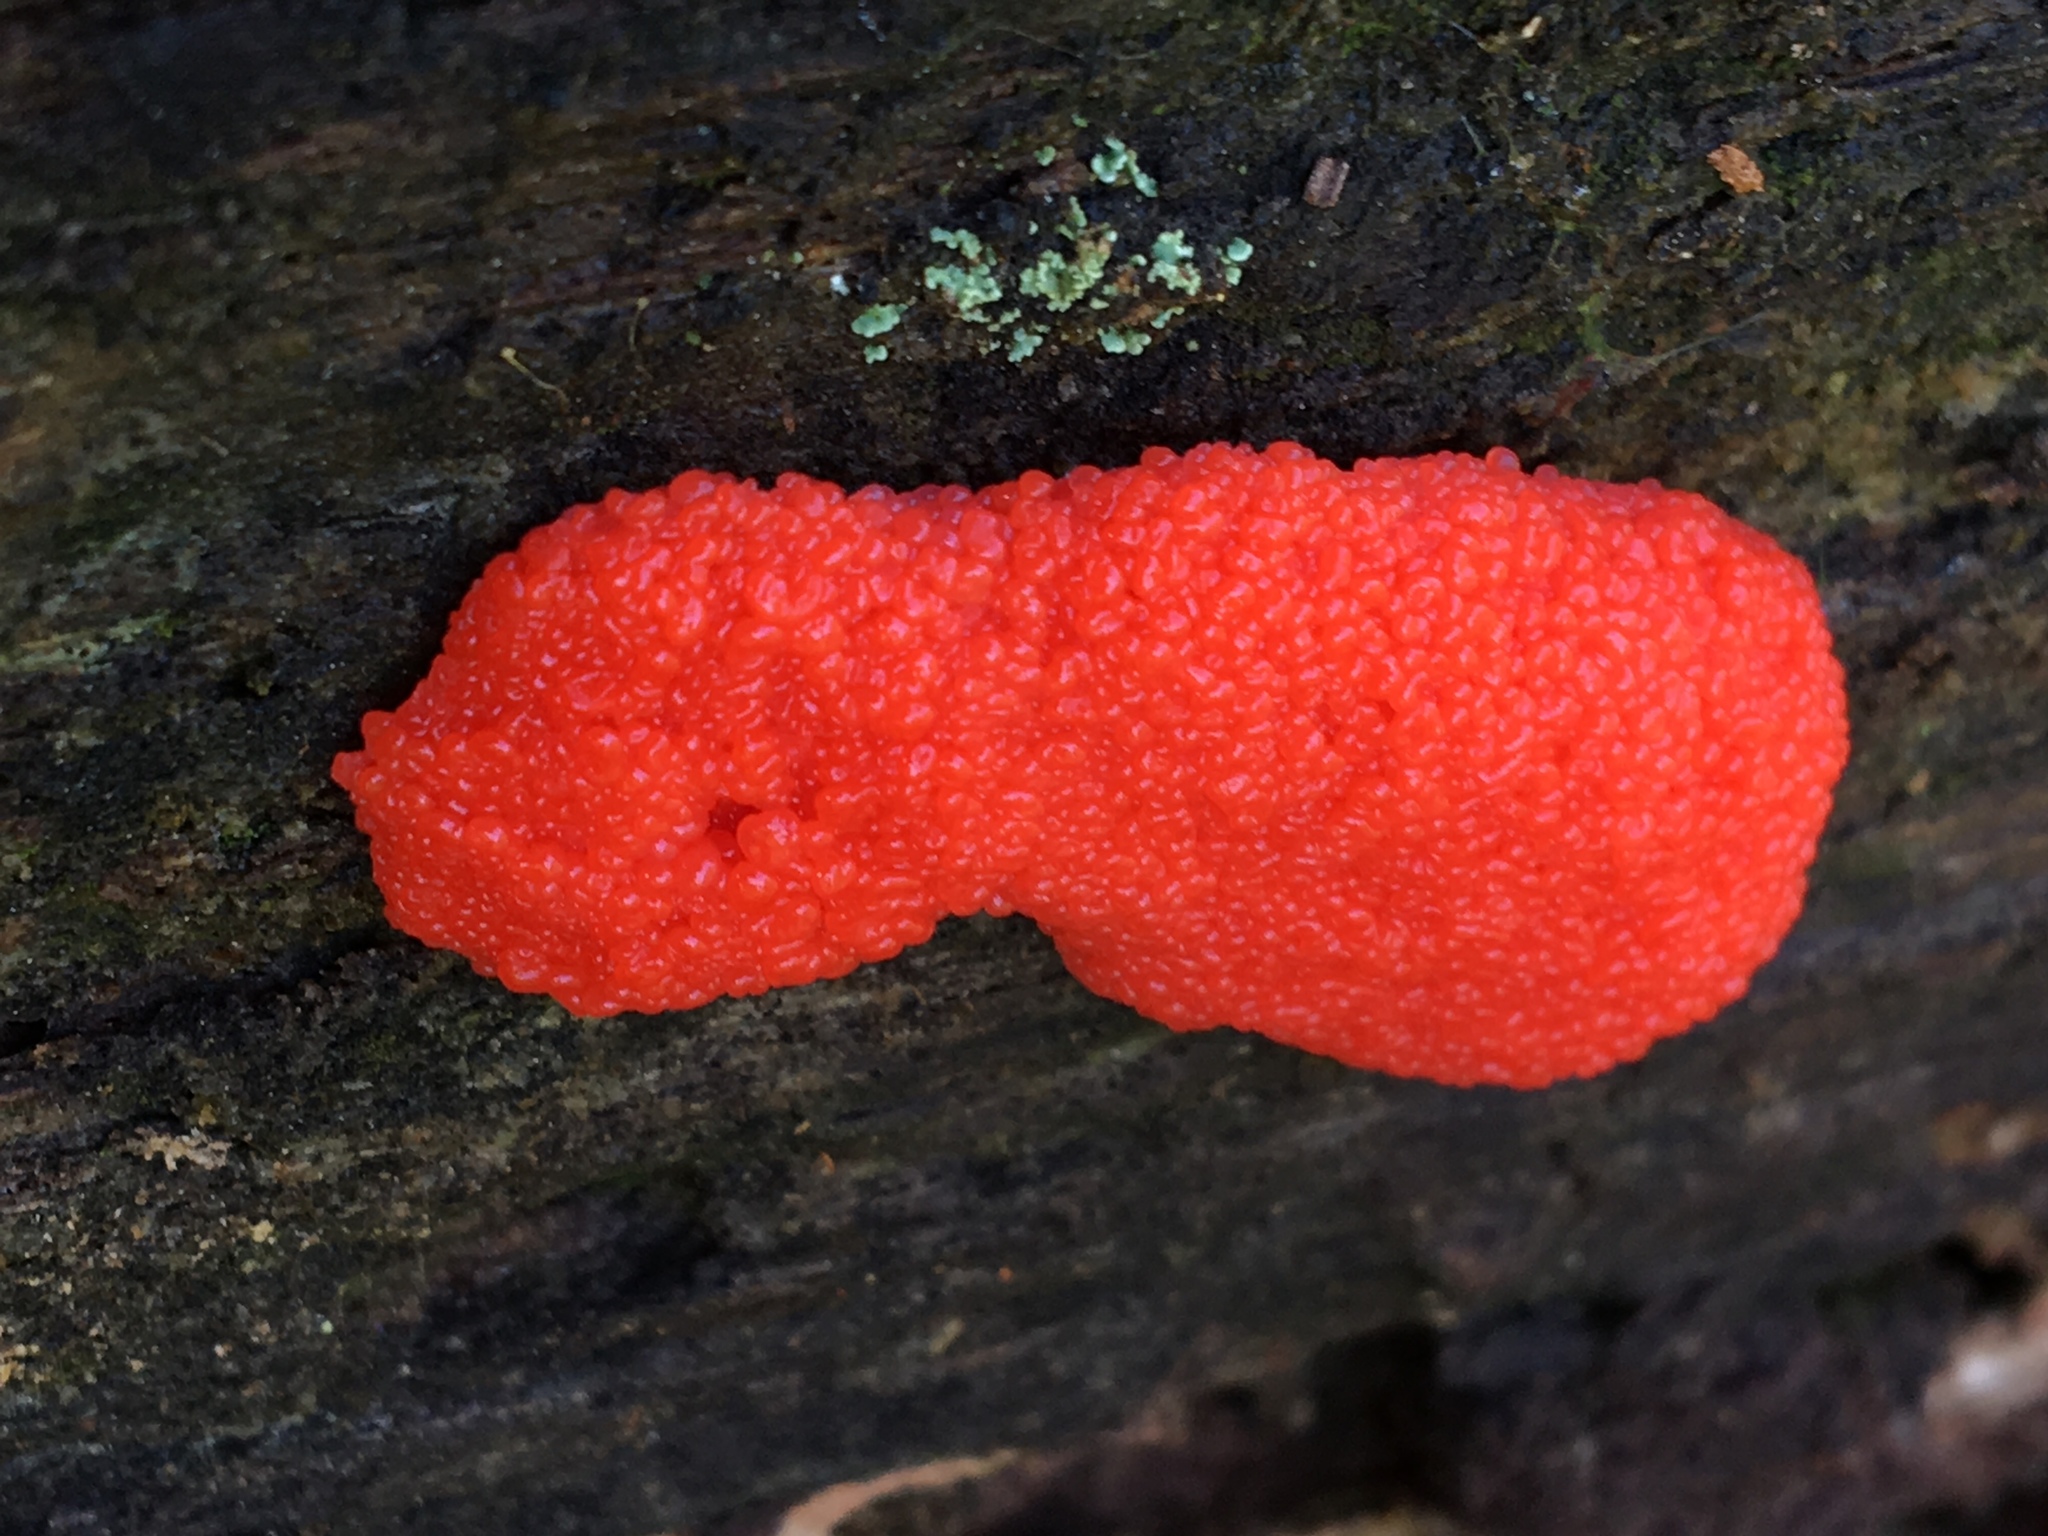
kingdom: Protozoa
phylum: Mycetozoa
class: Myxomycetes
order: Cribrariales
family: Tubiferaceae
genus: Tubifera
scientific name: Tubifera ferruginosa
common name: Red raspberry slime mold
